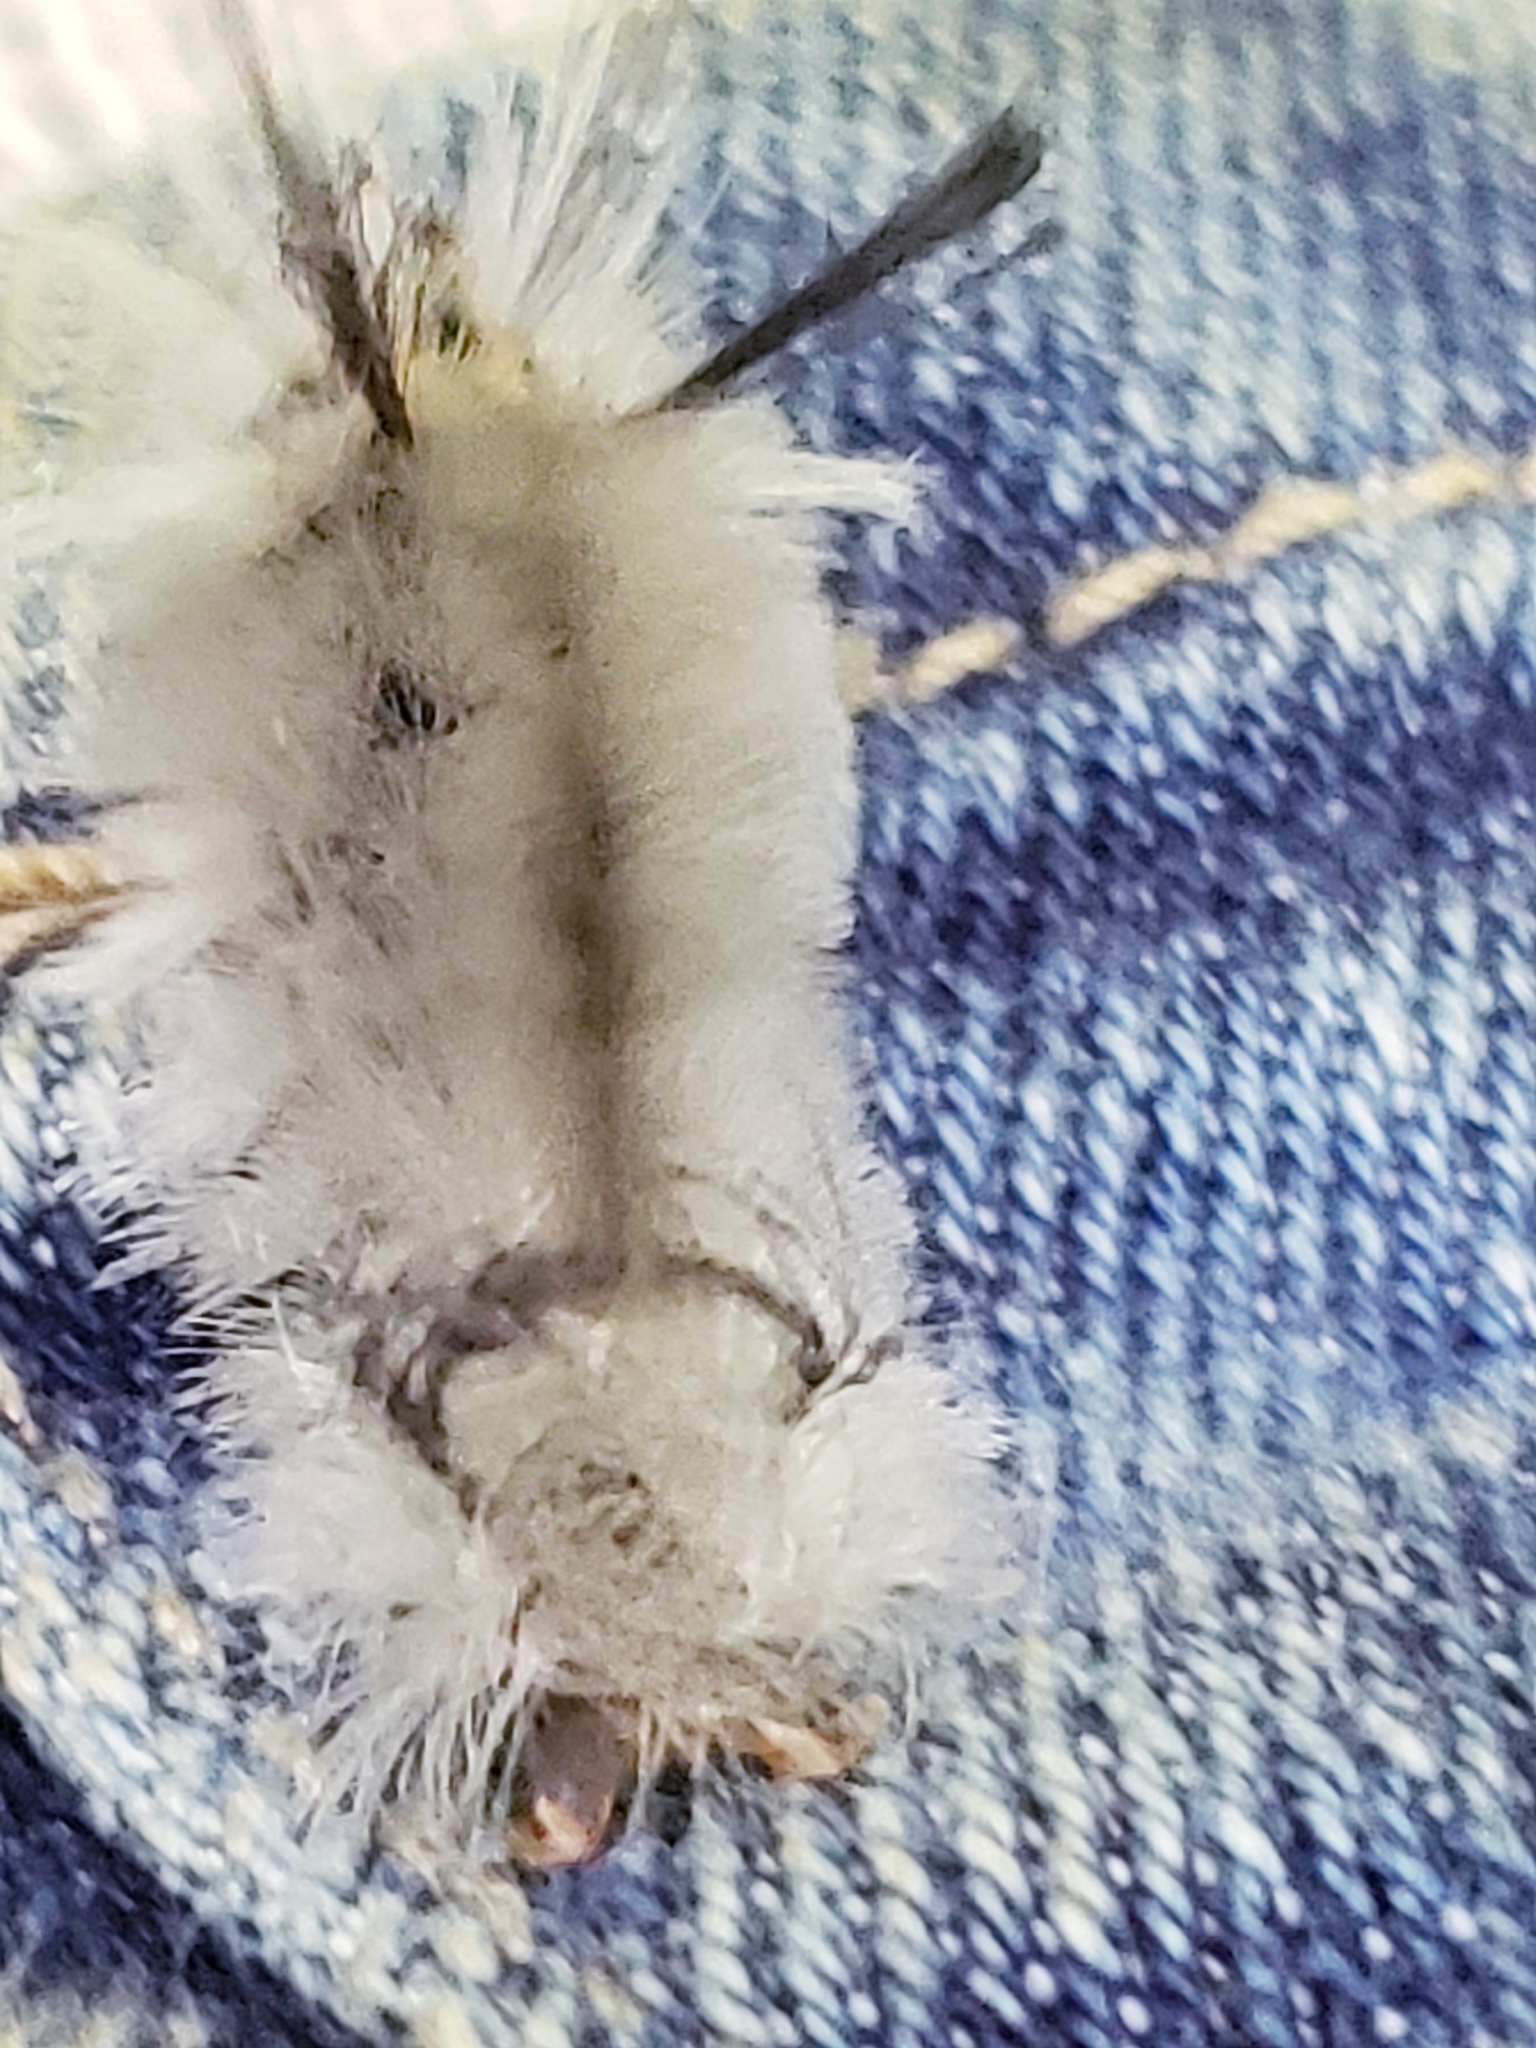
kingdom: Animalia
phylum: Arthropoda
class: Insecta
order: Lepidoptera
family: Erebidae
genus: Halysidota
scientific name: Halysidota tessellaris
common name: Banded tussock moth
